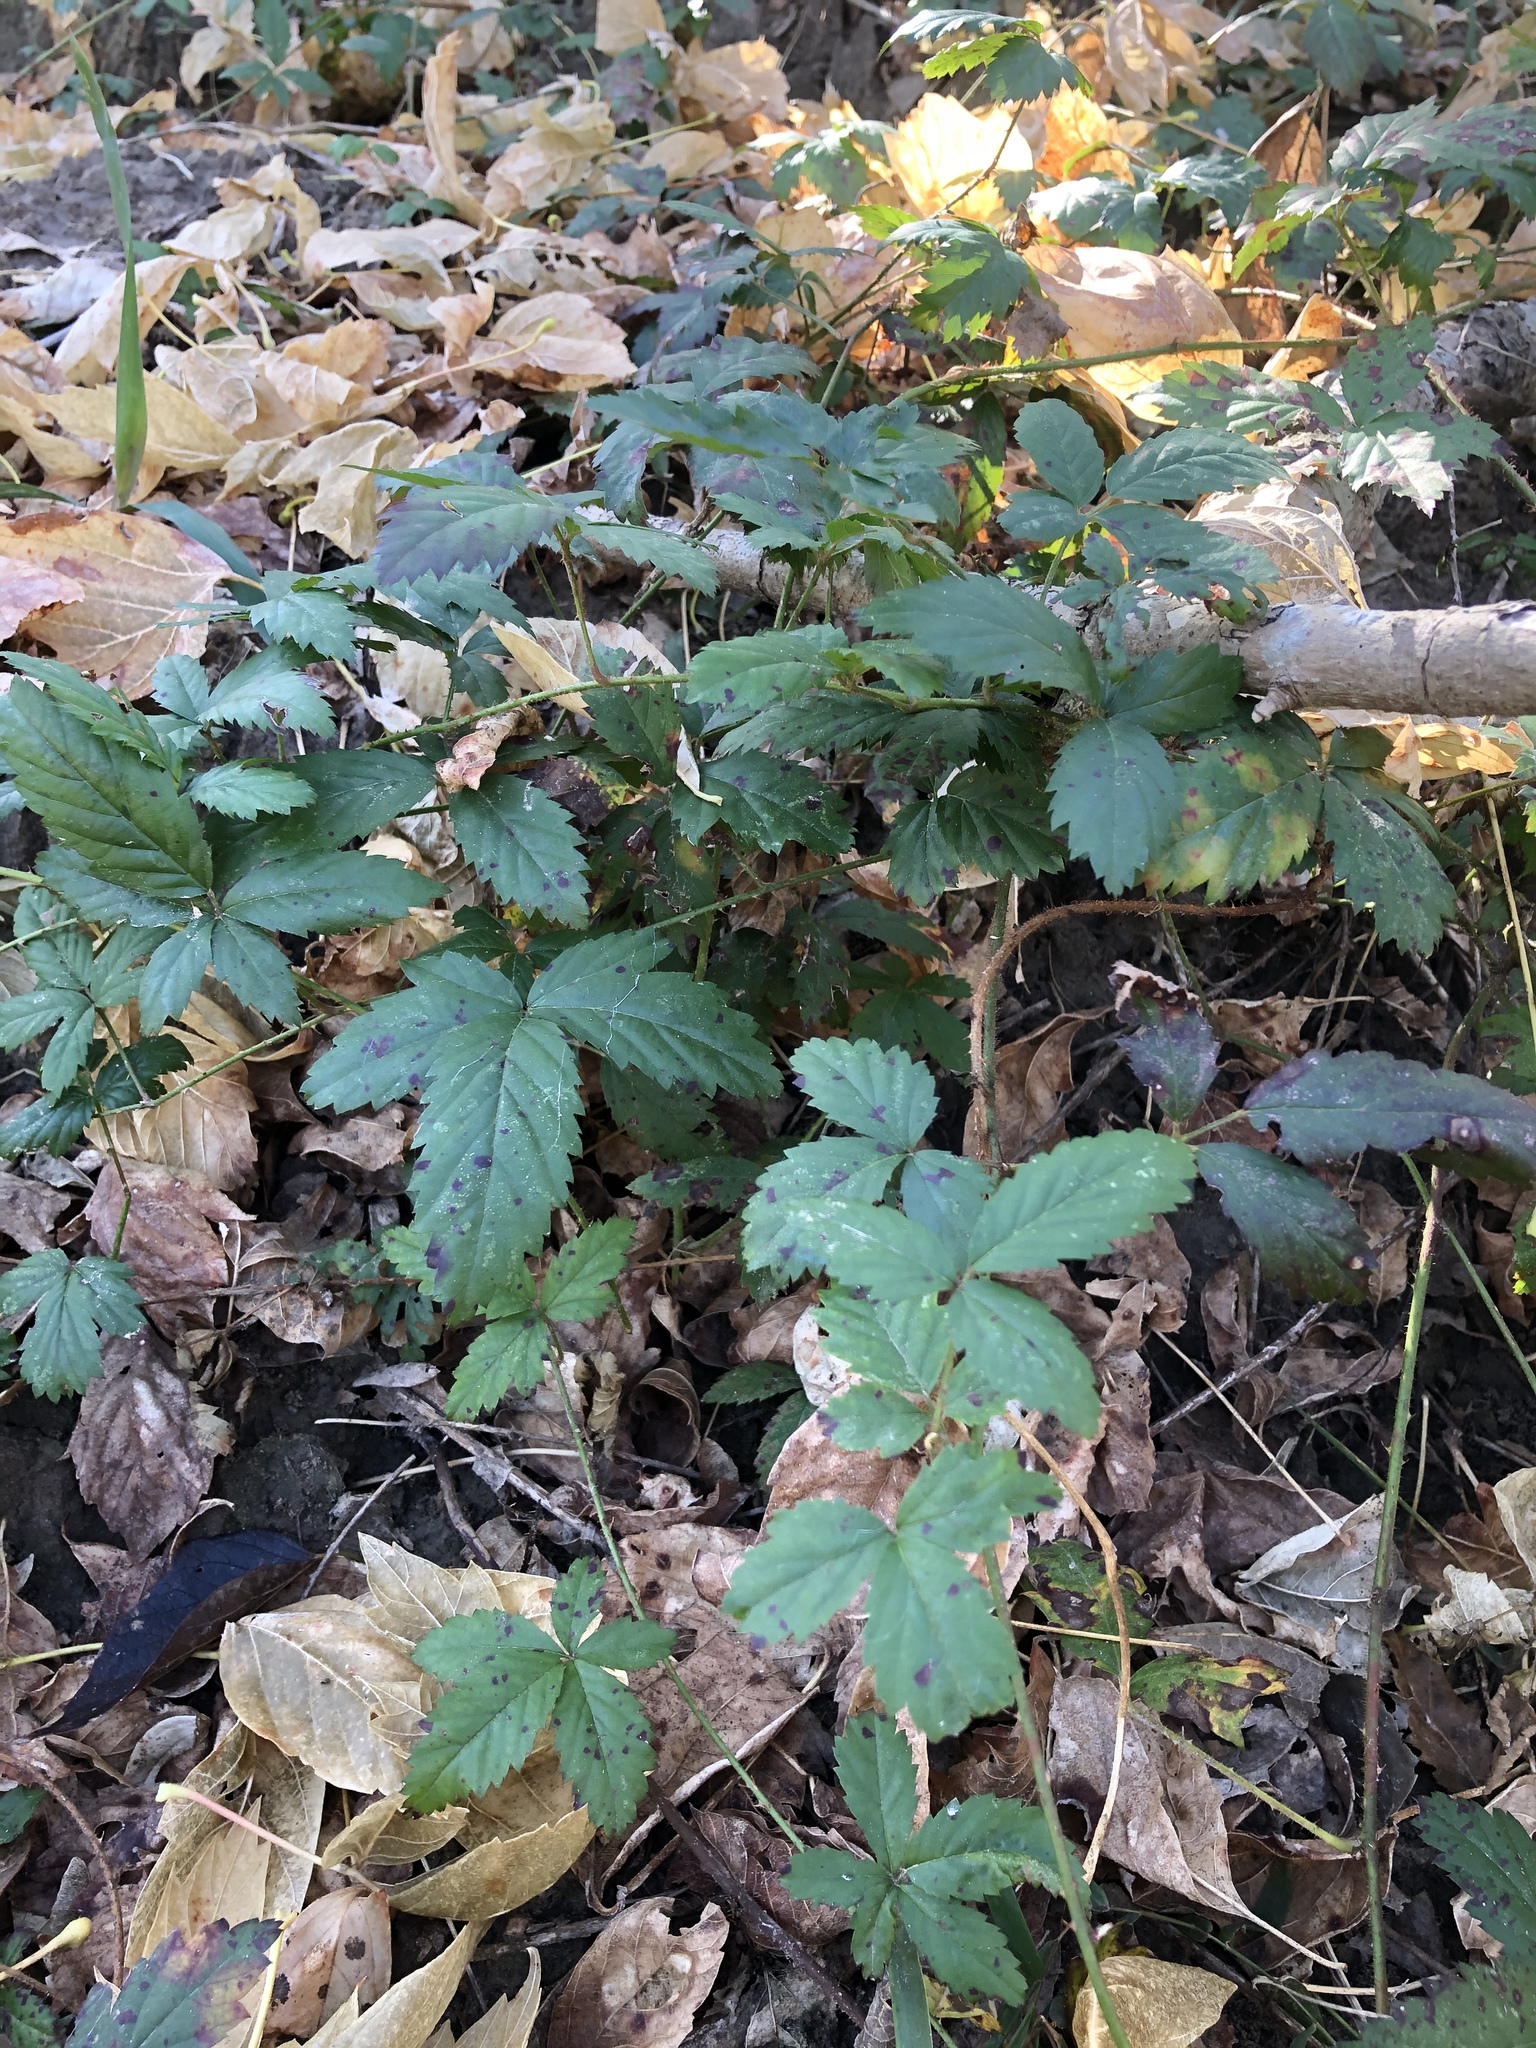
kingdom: Plantae
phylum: Tracheophyta
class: Magnoliopsida
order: Rosales
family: Rosaceae
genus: Rubus
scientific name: Rubus trivialis
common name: Southern dewberry
